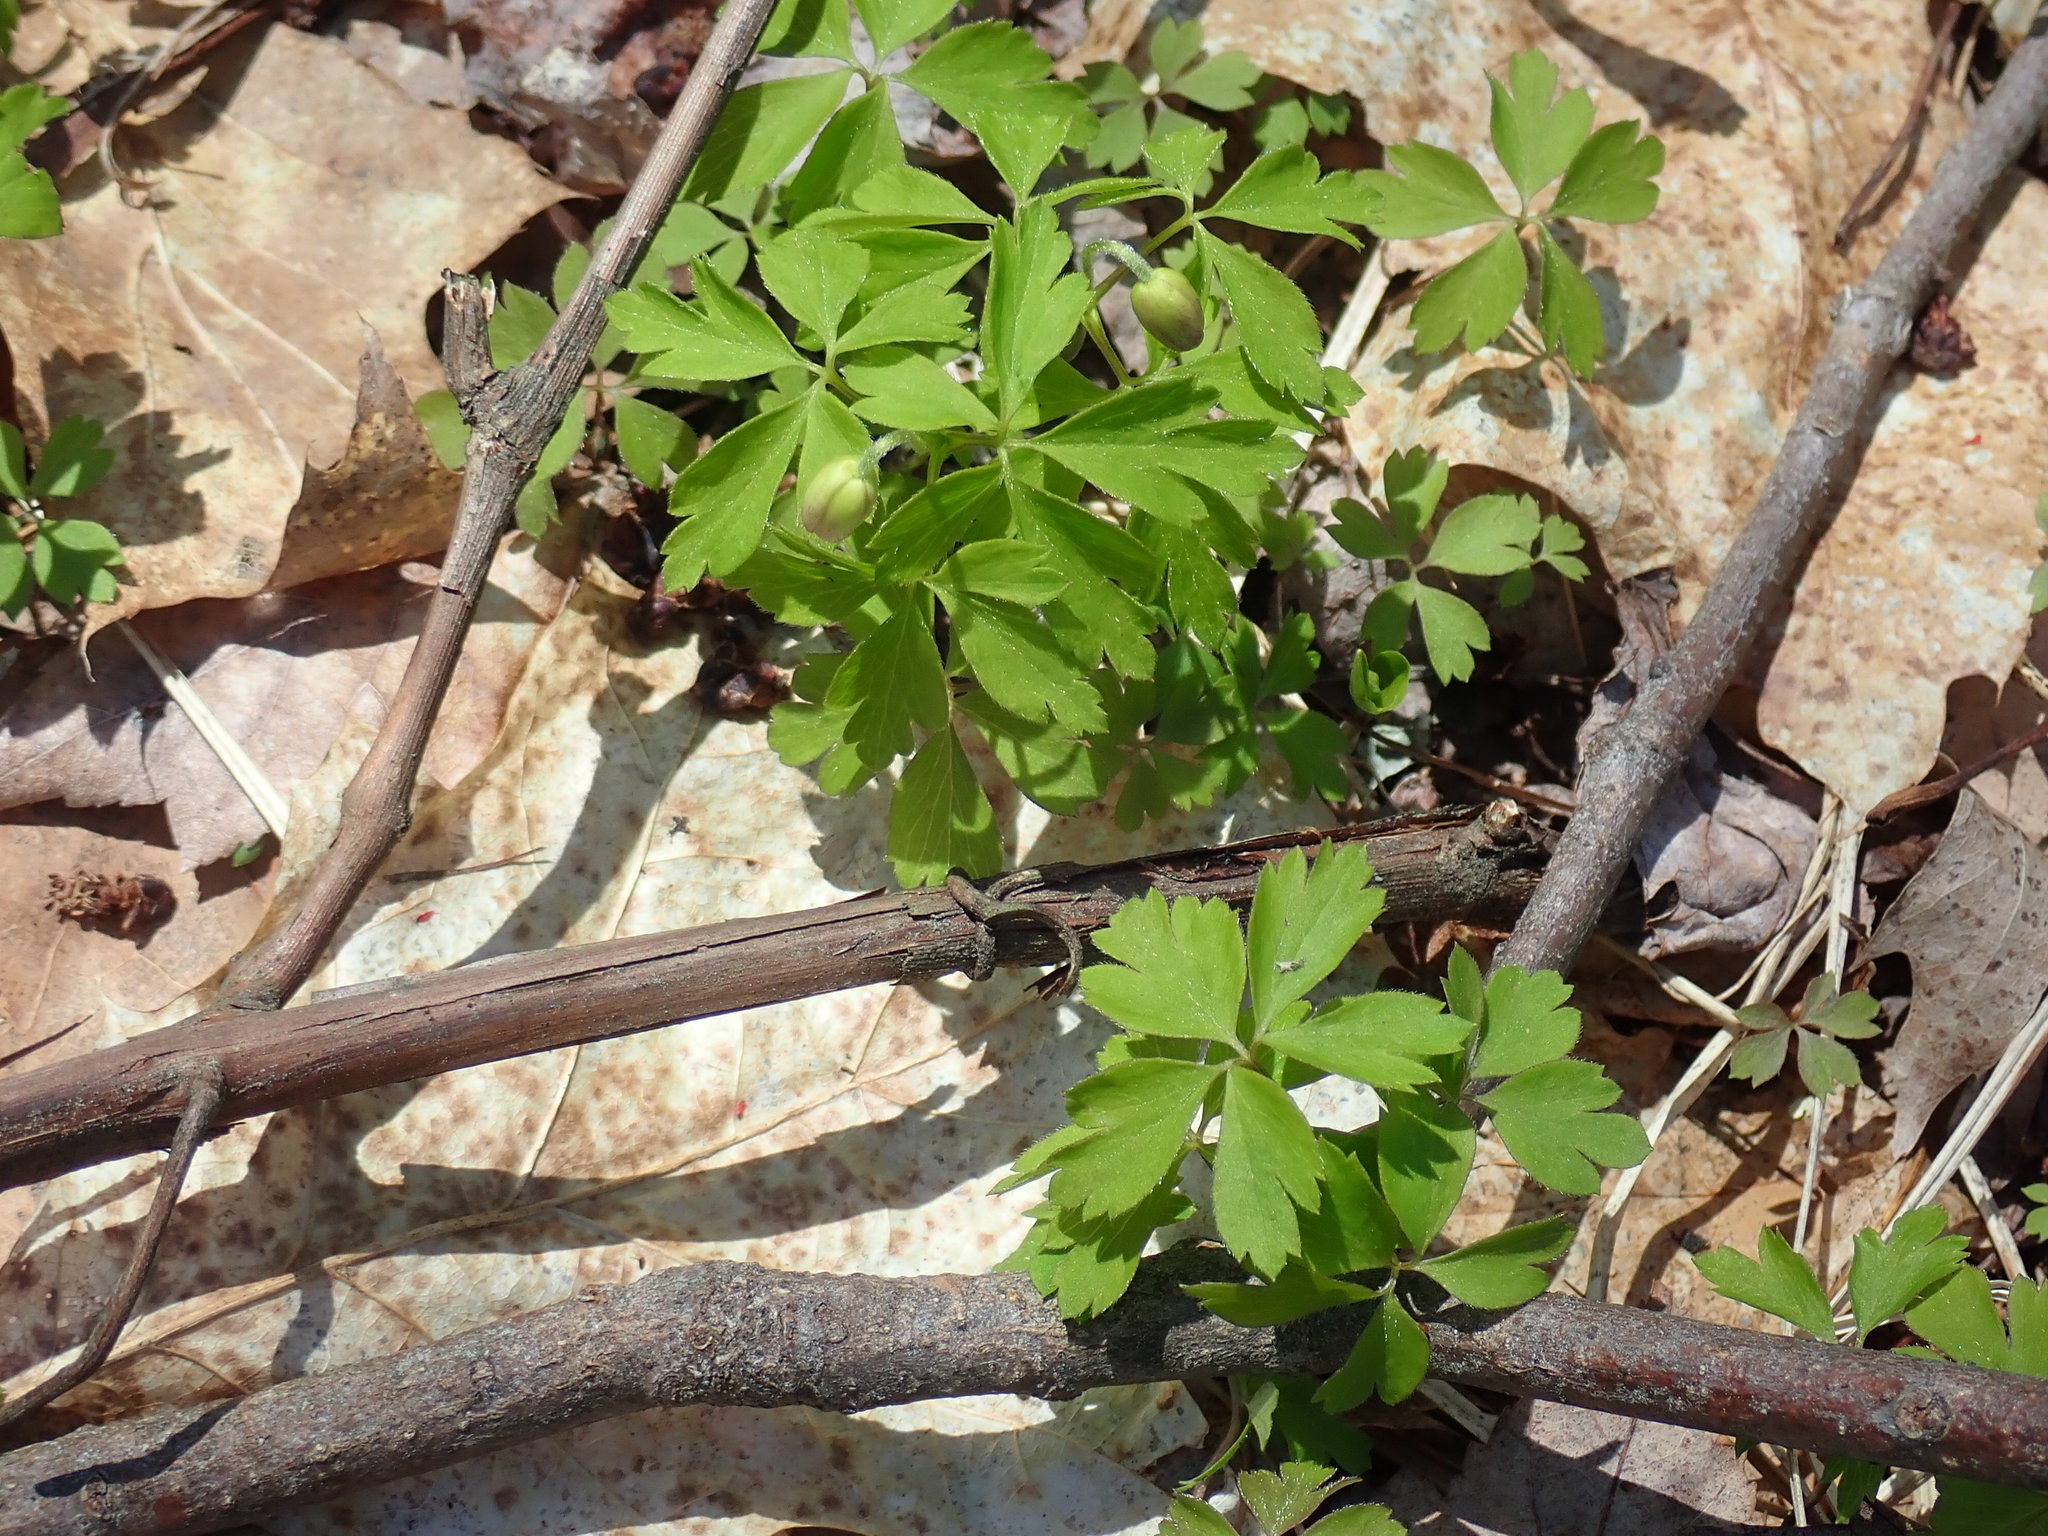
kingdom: Plantae
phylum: Tracheophyta
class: Magnoliopsida
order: Ranunculales
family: Ranunculaceae
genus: Anemone
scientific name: Anemone quinquefolia
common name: Wood anemone
